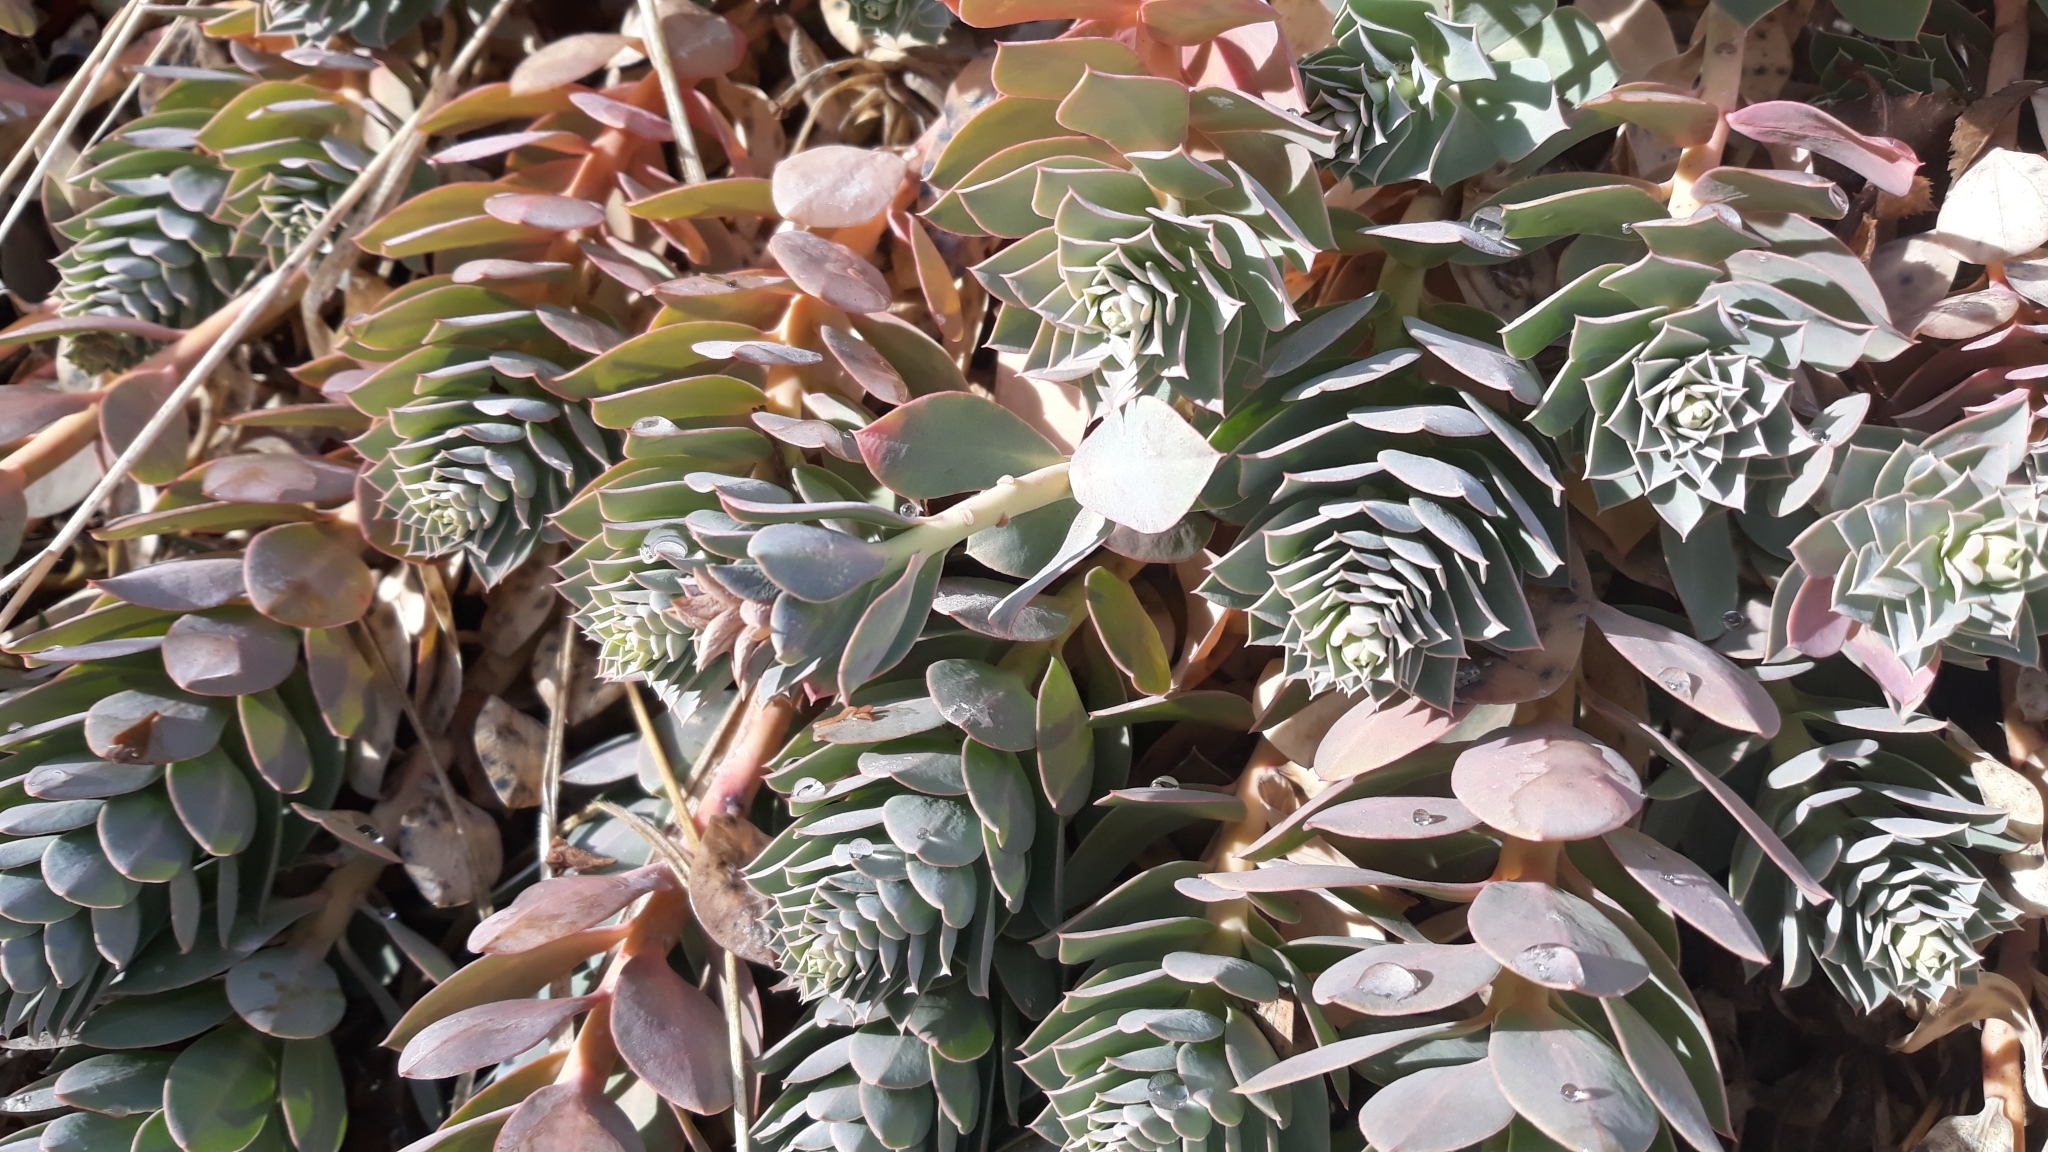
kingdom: Plantae
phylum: Tracheophyta
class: Magnoliopsida
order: Malpighiales
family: Euphorbiaceae
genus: Euphorbia
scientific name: Euphorbia myrsinites
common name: Myrtle spurge
